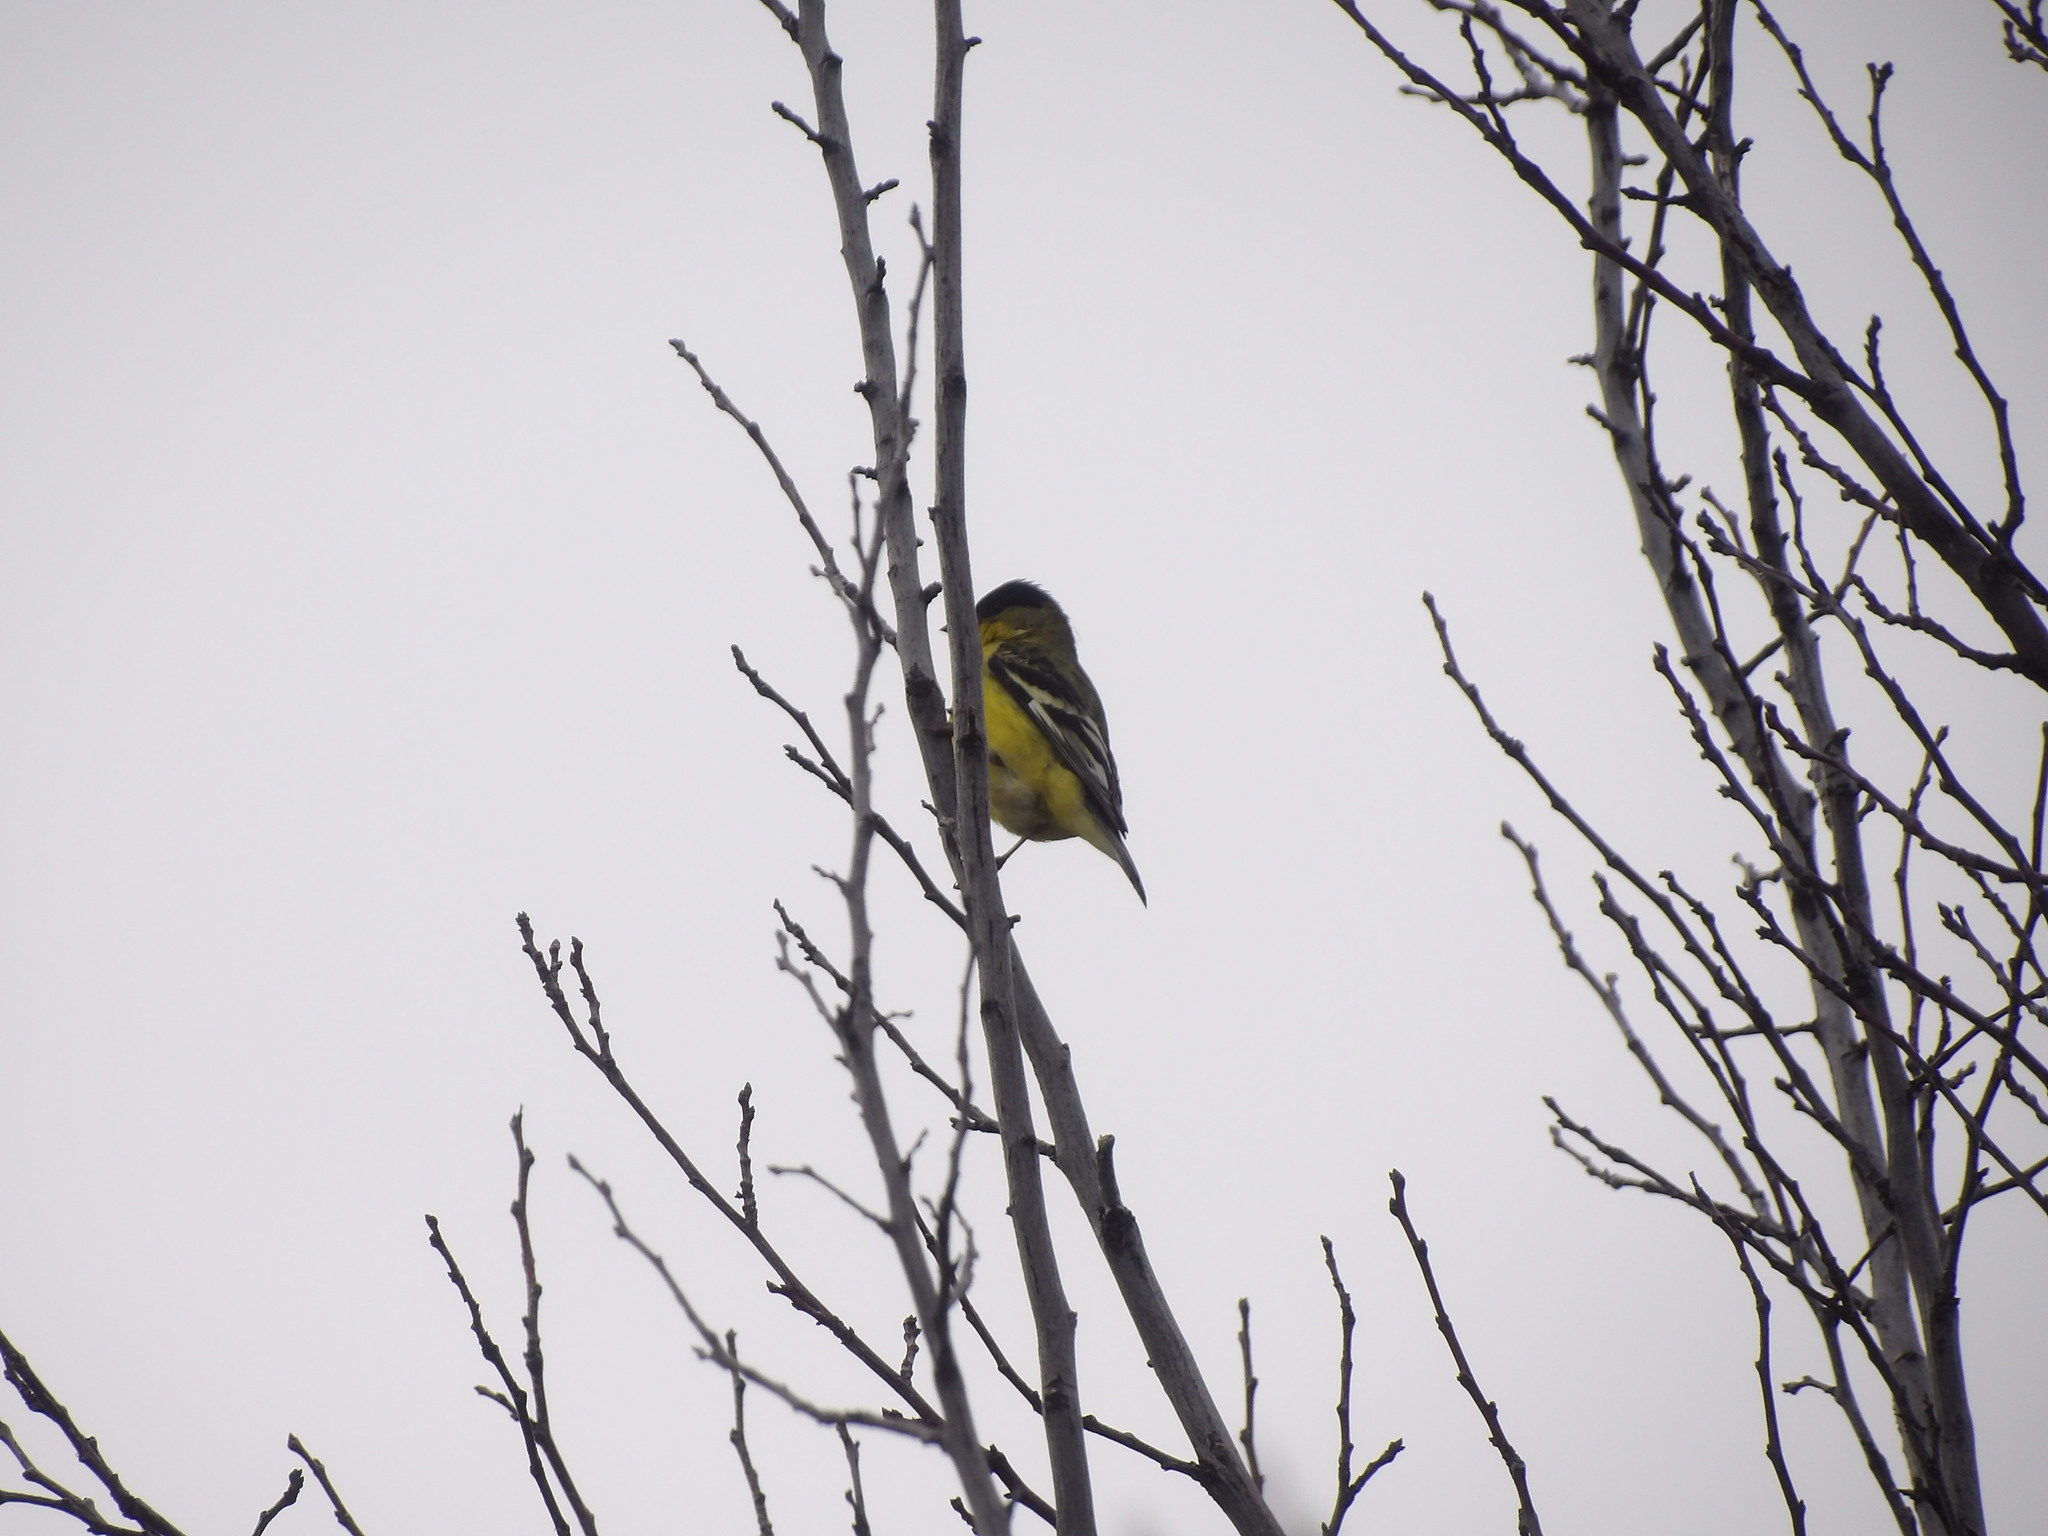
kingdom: Animalia
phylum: Chordata
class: Aves
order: Passeriformes
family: Fringillidae
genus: Spinus
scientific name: Spinus psaltria
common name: Lesser goldfinch
